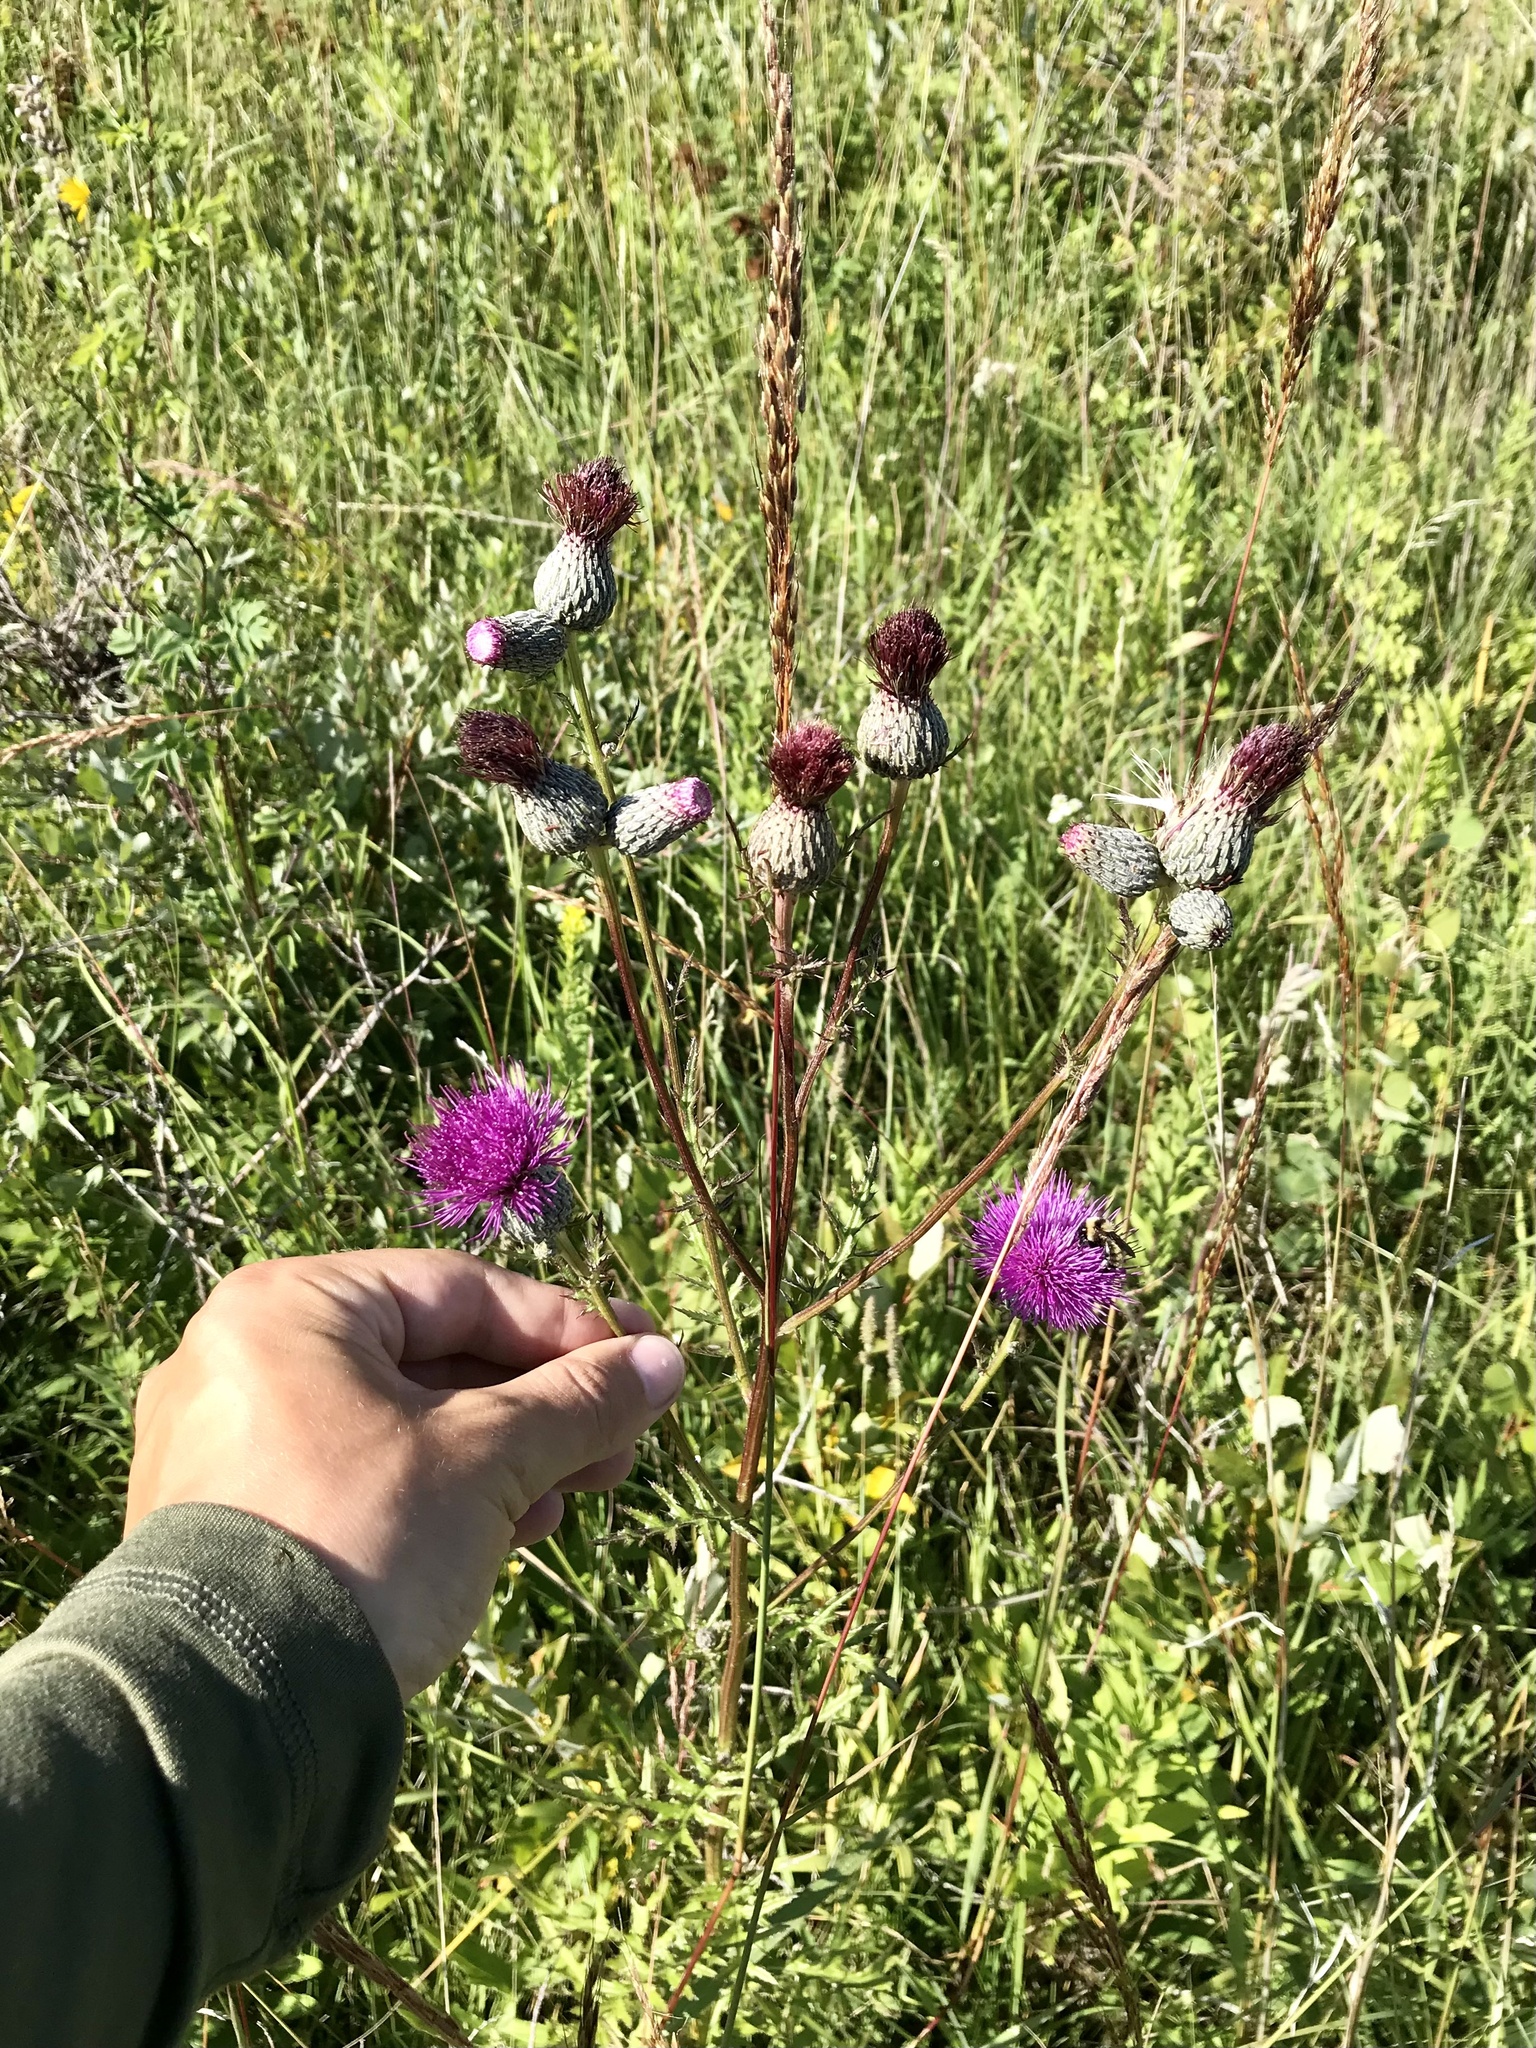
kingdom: Plantae
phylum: Tracheophyta
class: Magnoliopsida
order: Asterales
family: Asteraceae
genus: Cirsium
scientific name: Cirsium muticum
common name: Dunce-nettle
